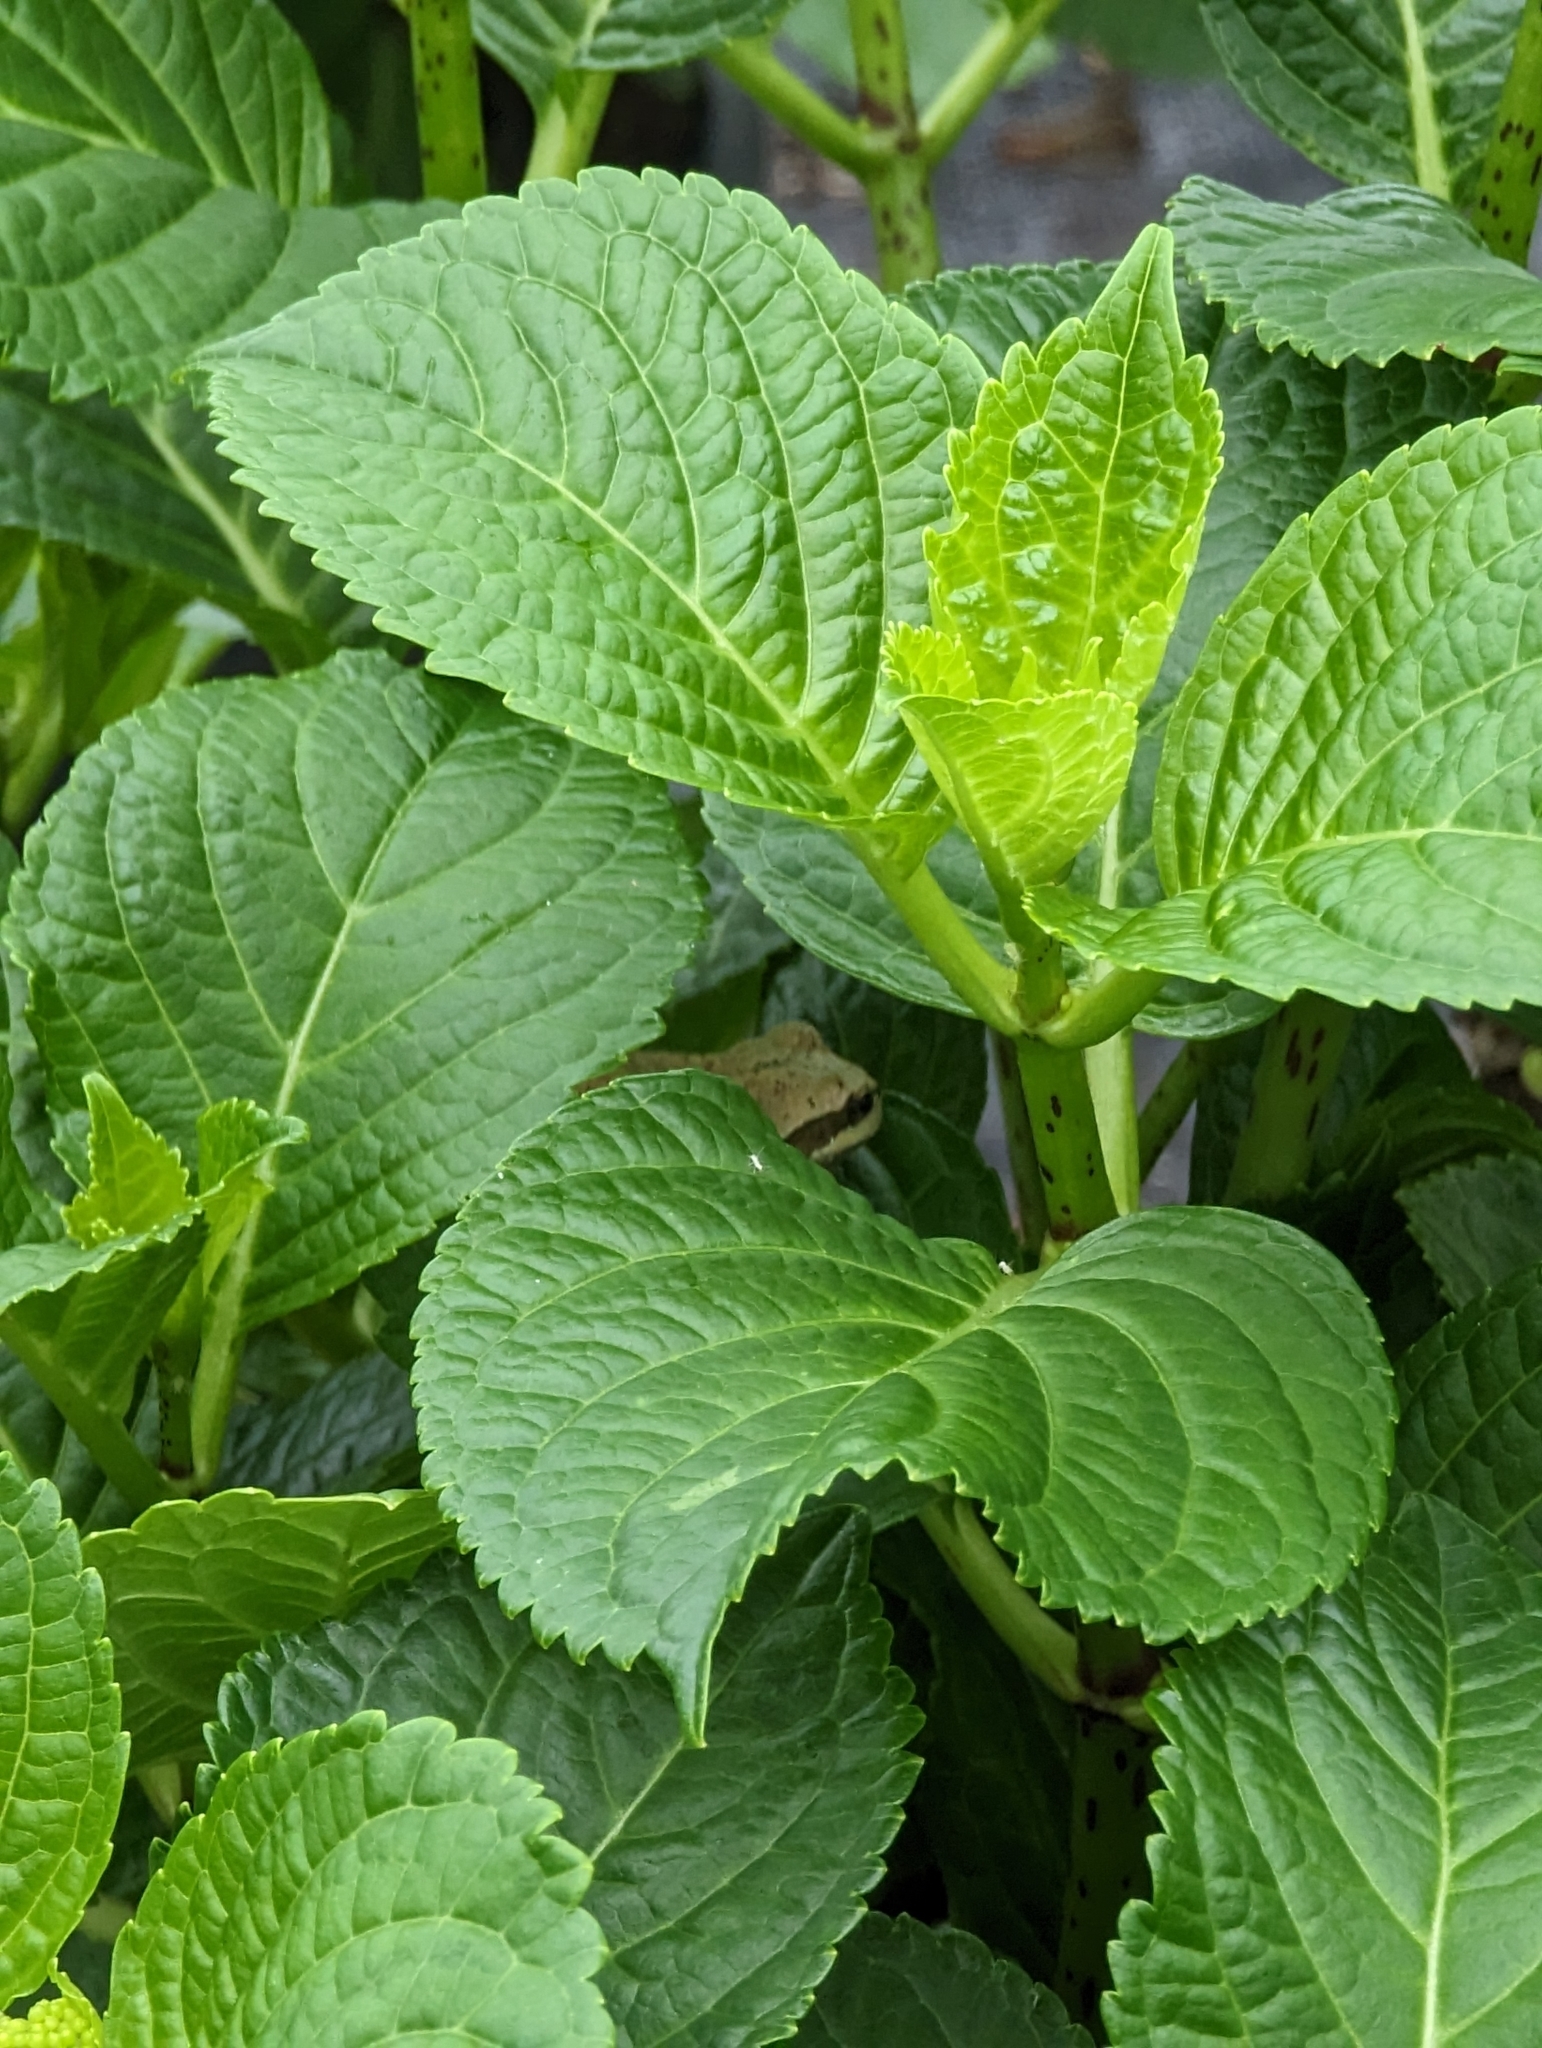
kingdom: Animalia
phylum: Chordata
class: Amphibia
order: Anura
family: Hylidae
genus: Pseudacris
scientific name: Pseudacris regilla
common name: Pacific chorus frog
